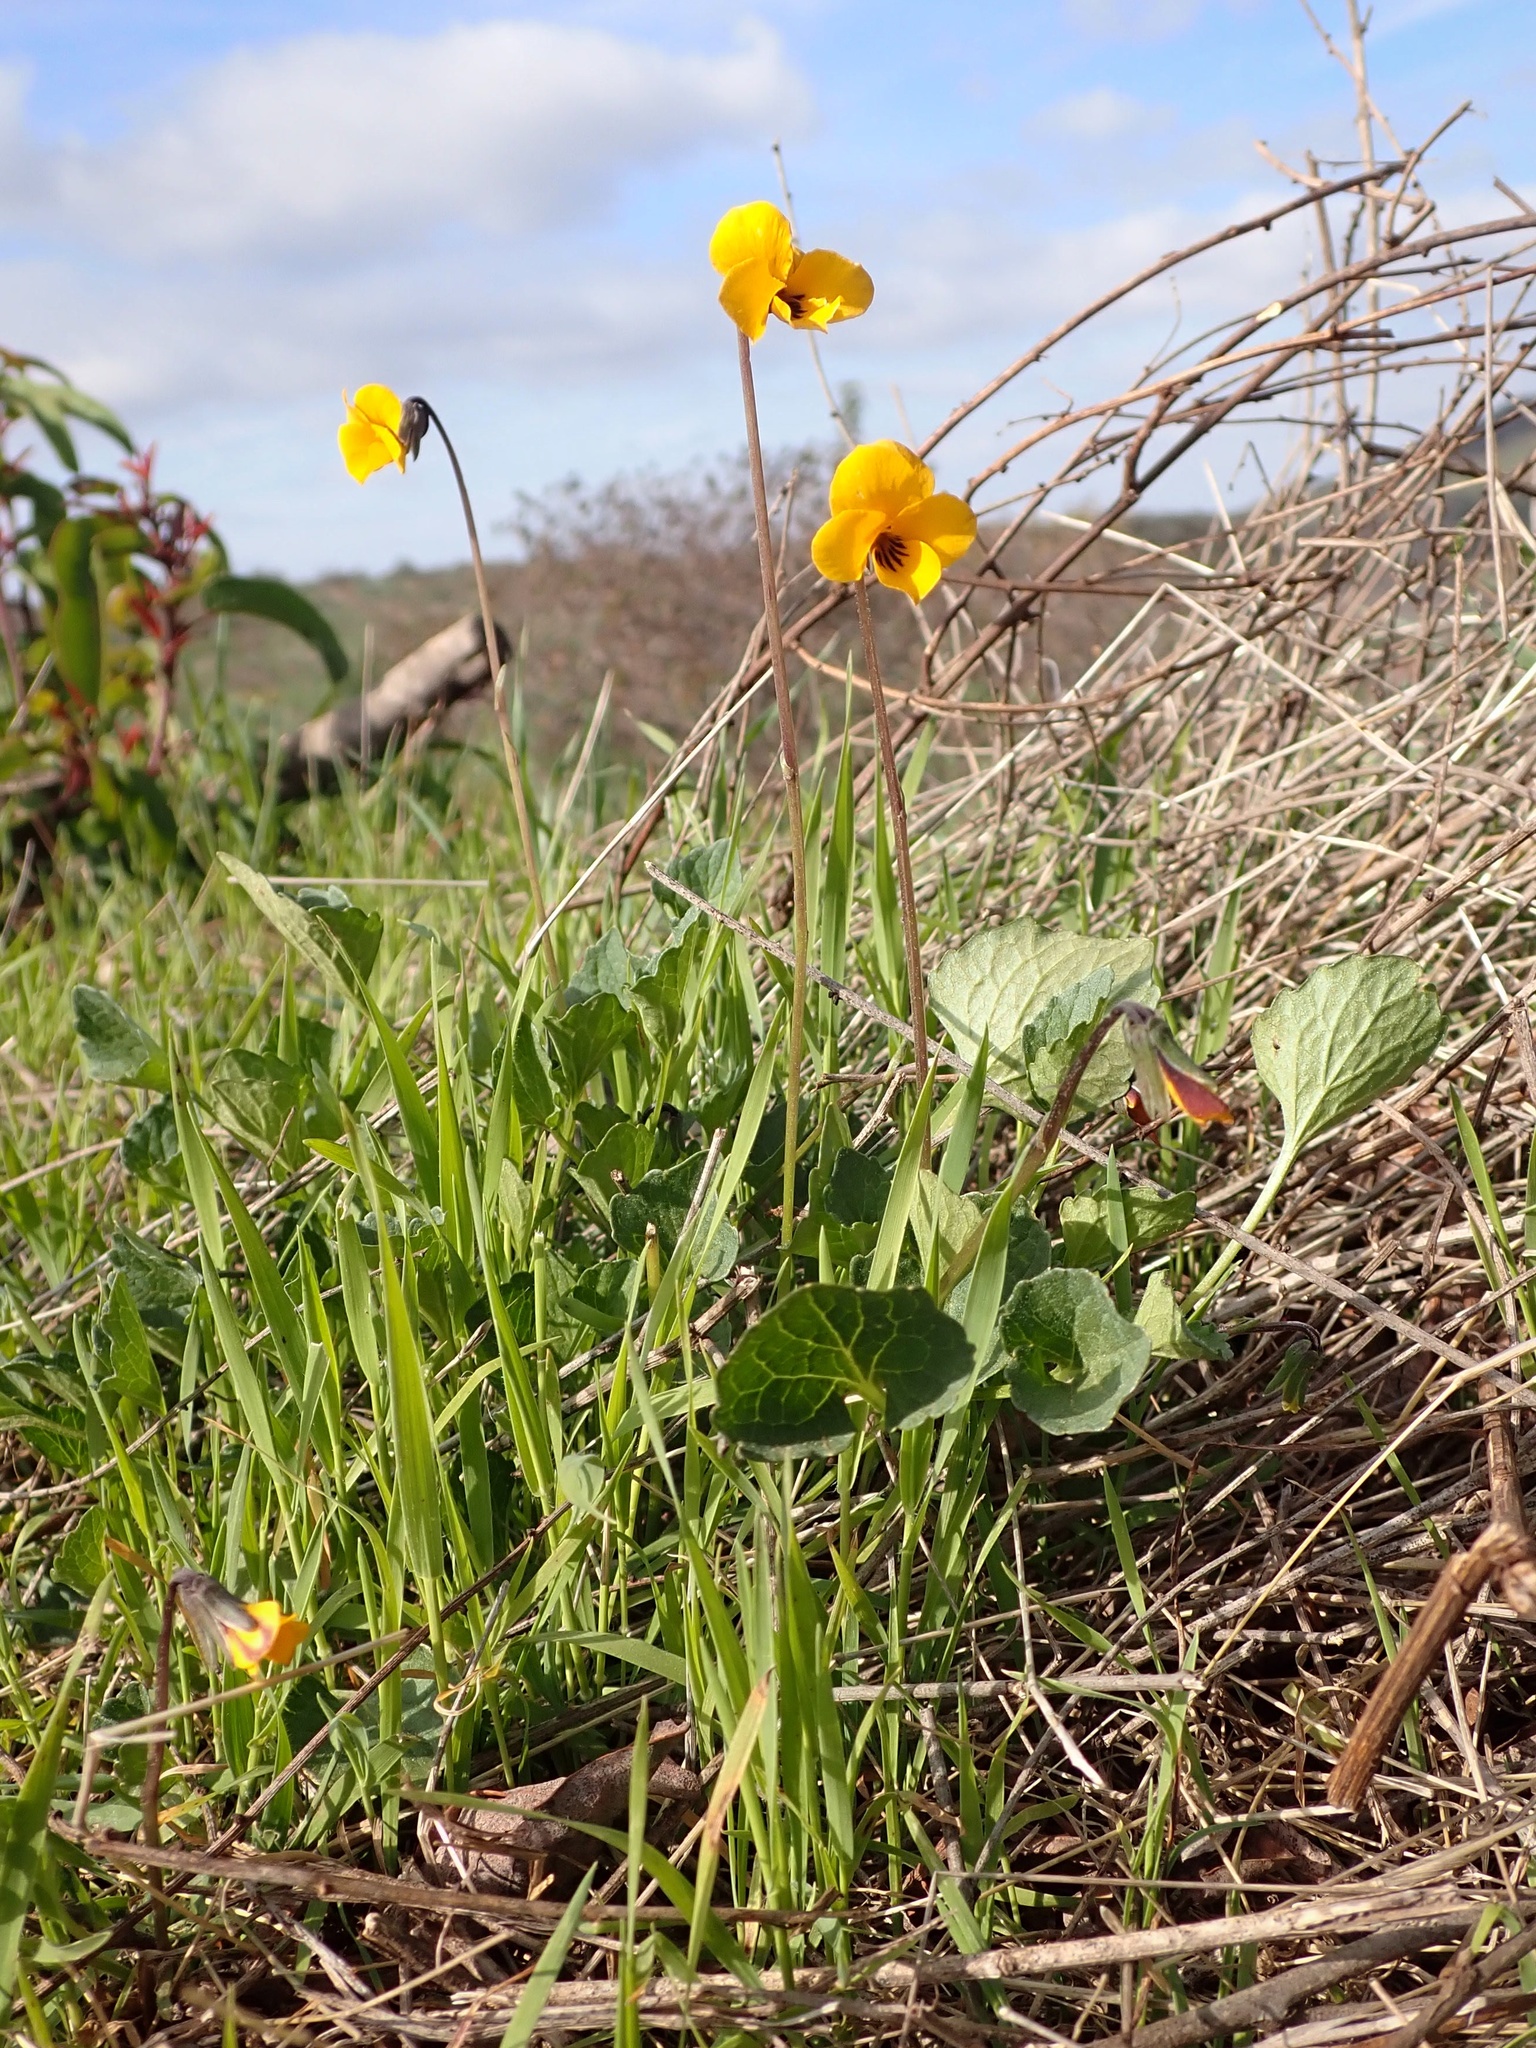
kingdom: Plantae
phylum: Tracheophyta
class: Magnoliopsida
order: Malpighiales
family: Violaceae
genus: Viola
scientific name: Viola pedunculata
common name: California golden violet
